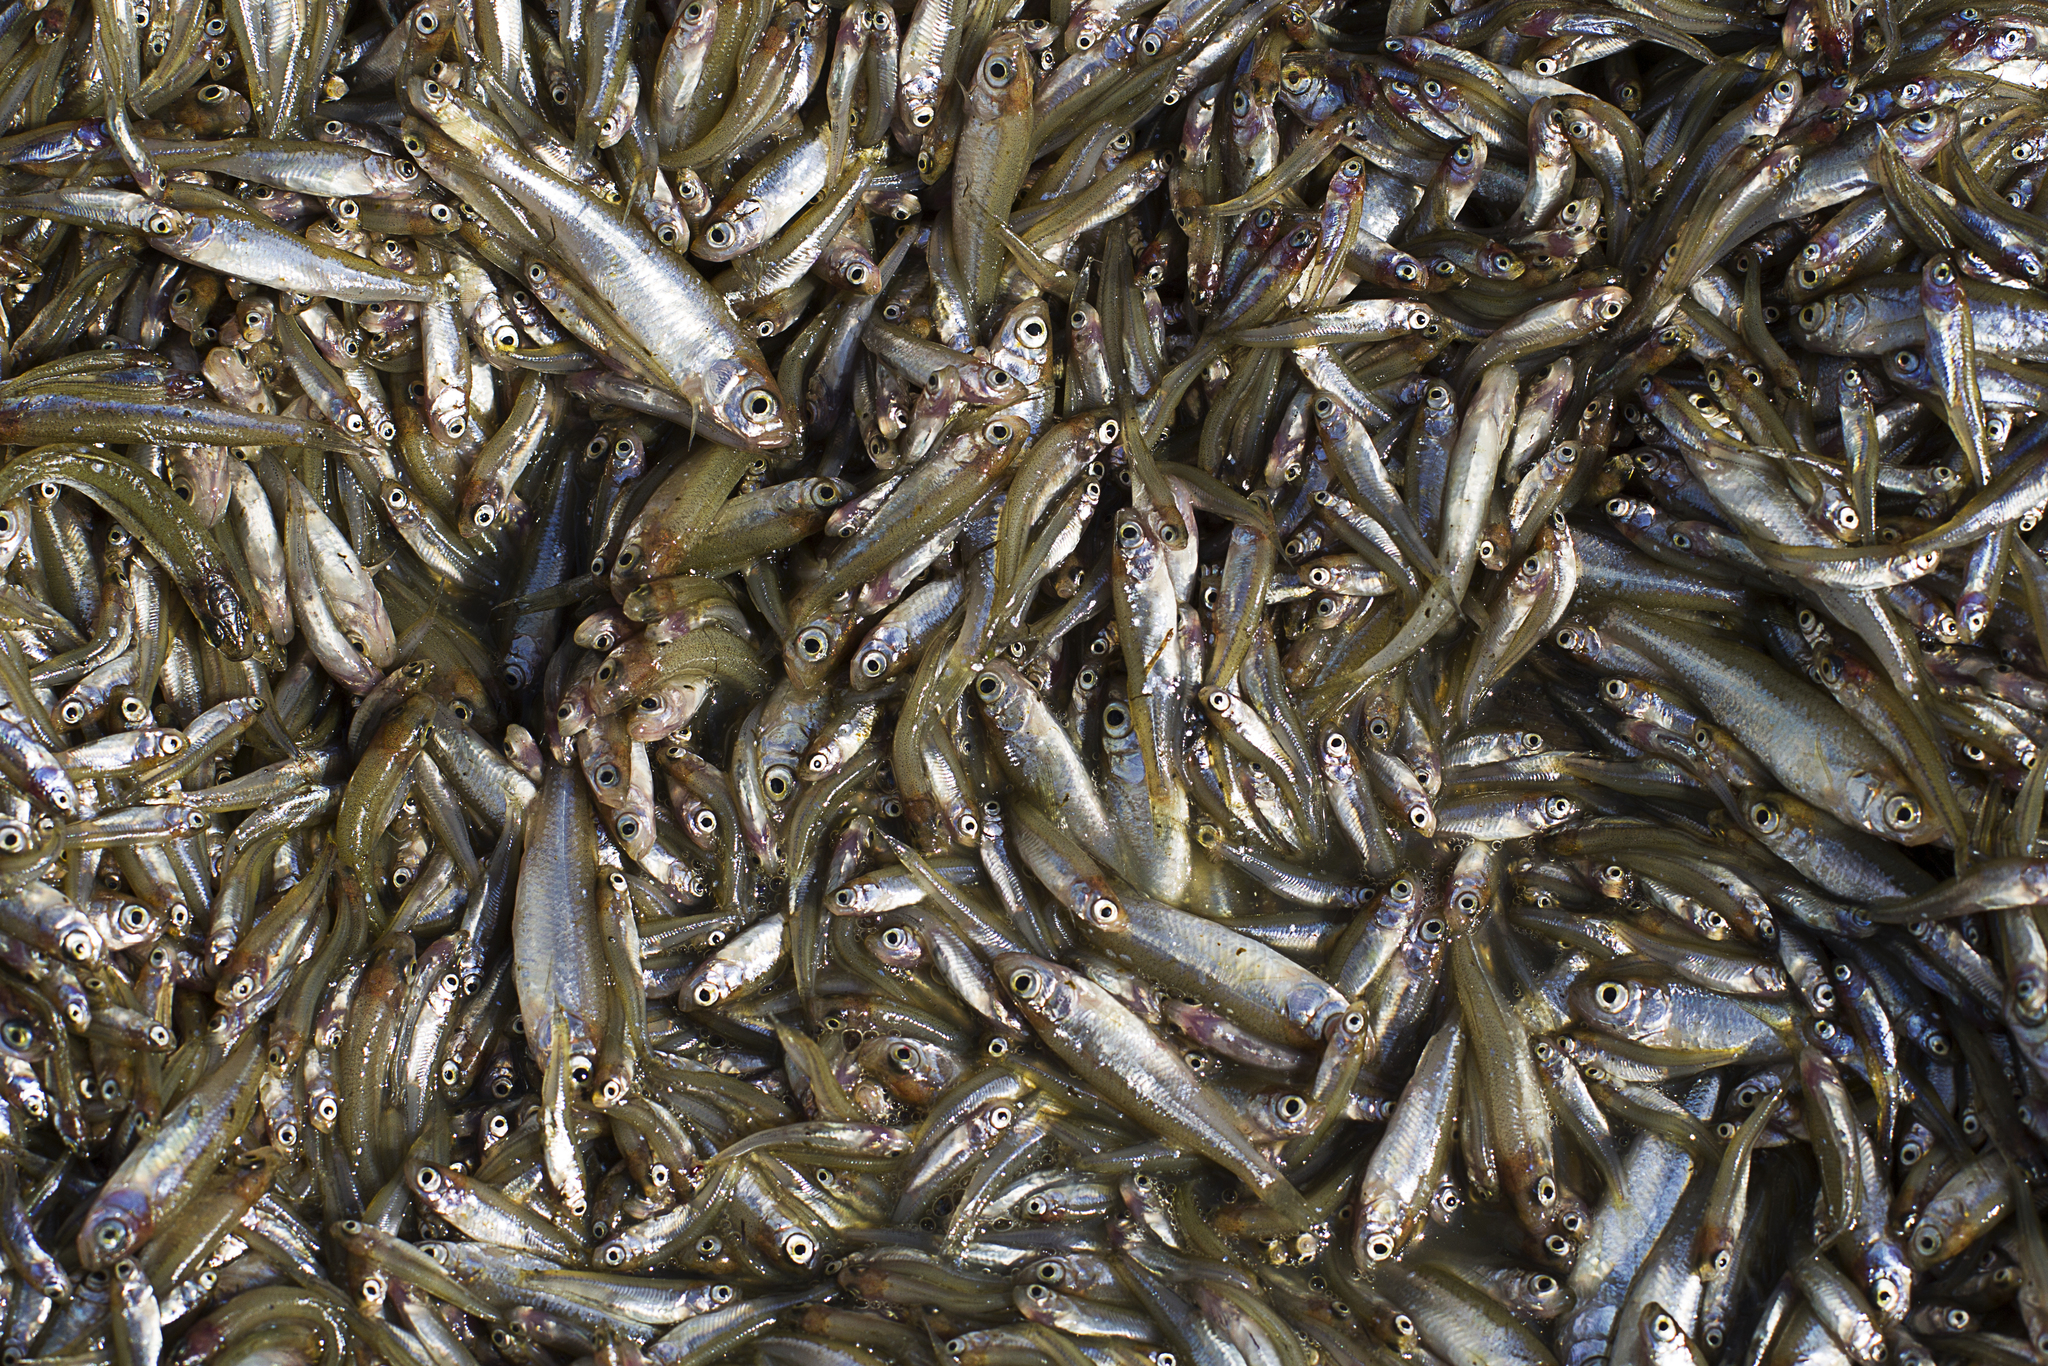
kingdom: Animalia
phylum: Chordata
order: Cypriniformes
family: Cyprinidae
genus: Leucaspius
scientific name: Leucaspius delineatus
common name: Sunbleak
